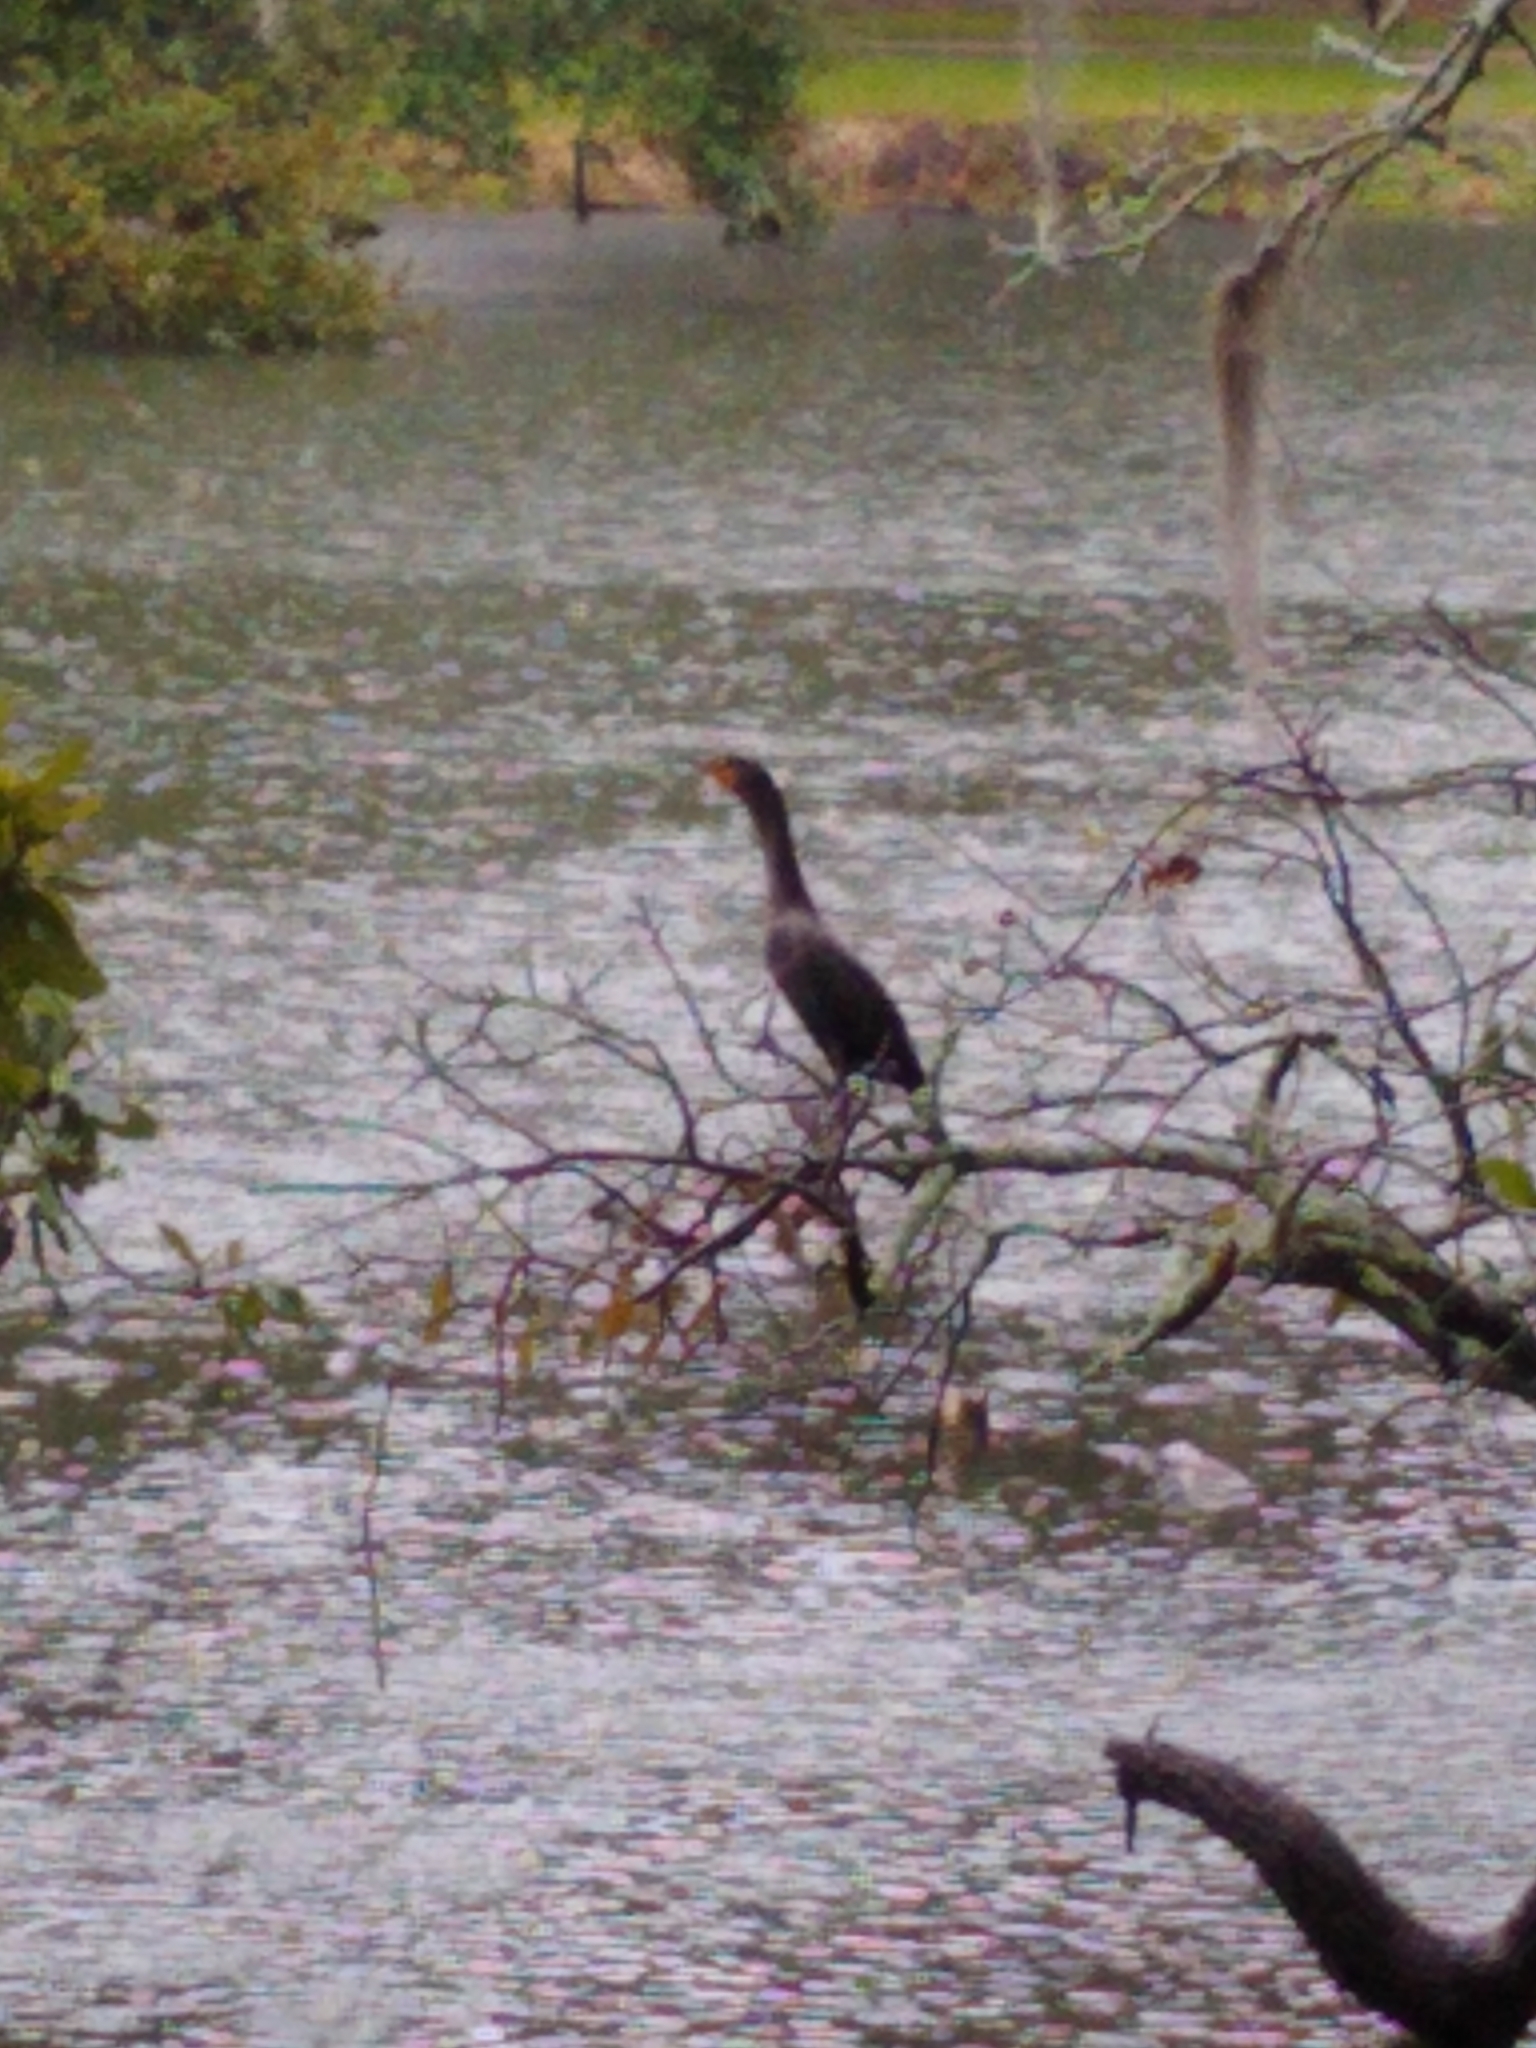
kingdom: Animalia
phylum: Chordata
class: Aves
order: Suliformes
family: Phalacrocoracidae
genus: Phalacrocorax
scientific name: Phalacrocorax auritus
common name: Double-crested cormorant
